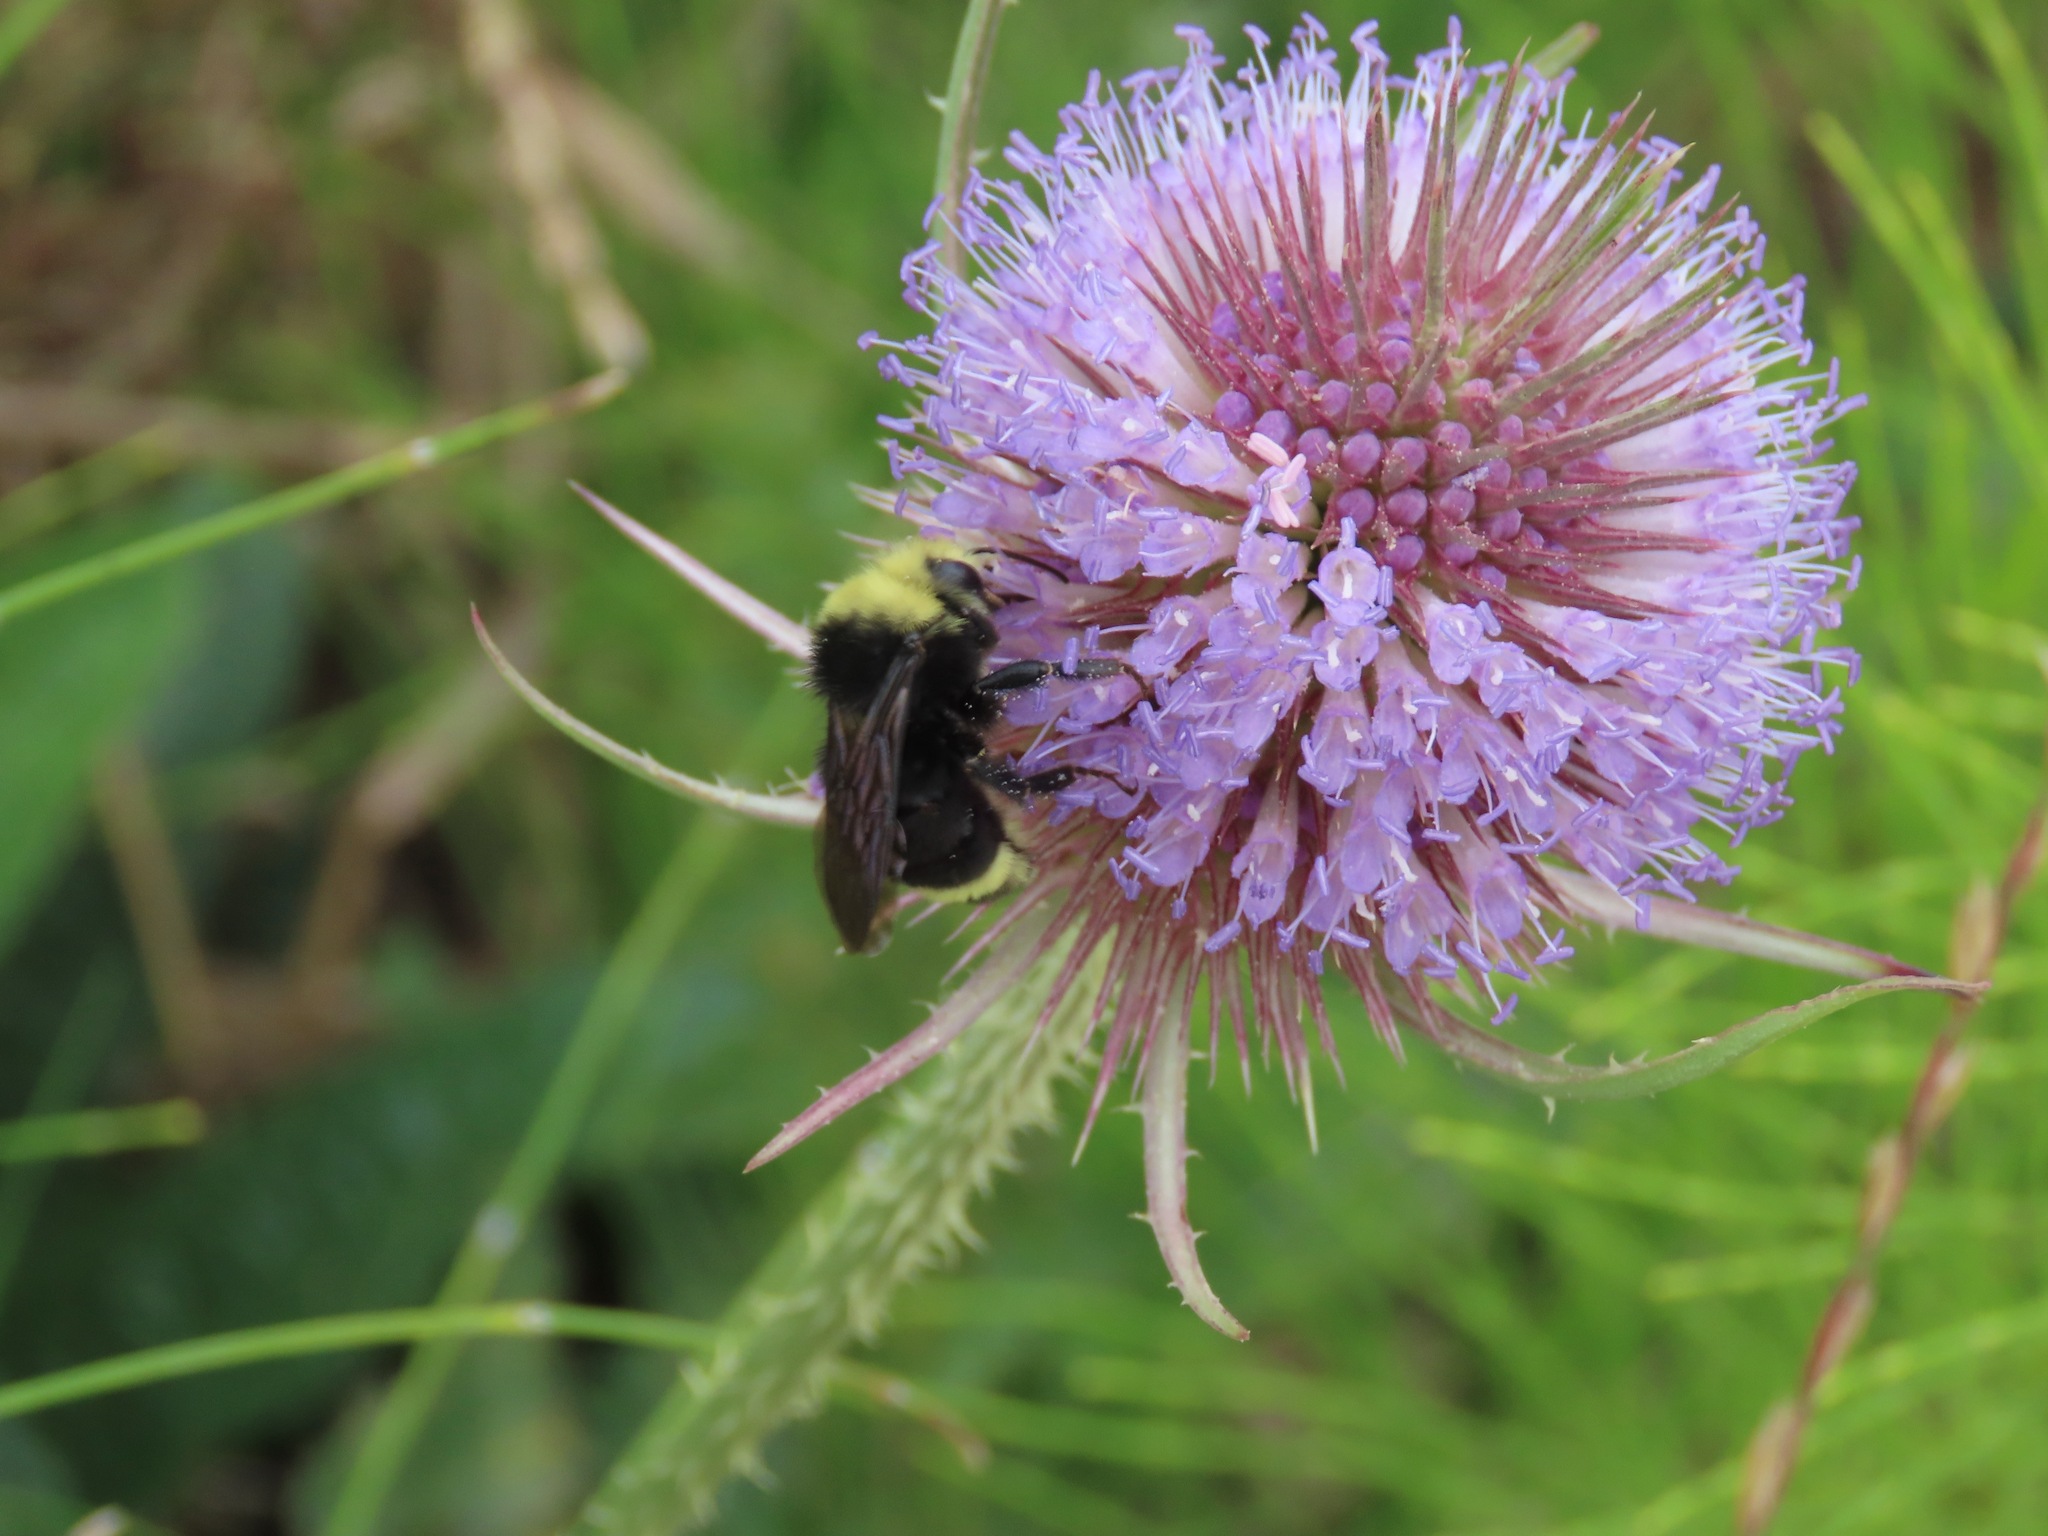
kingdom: Animalia
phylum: Arthropoda
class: Insecta
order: Hymenoptera
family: Apidae
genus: Bombus
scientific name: Bombus vosnesenskii
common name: Vosnesensky bumble bee
